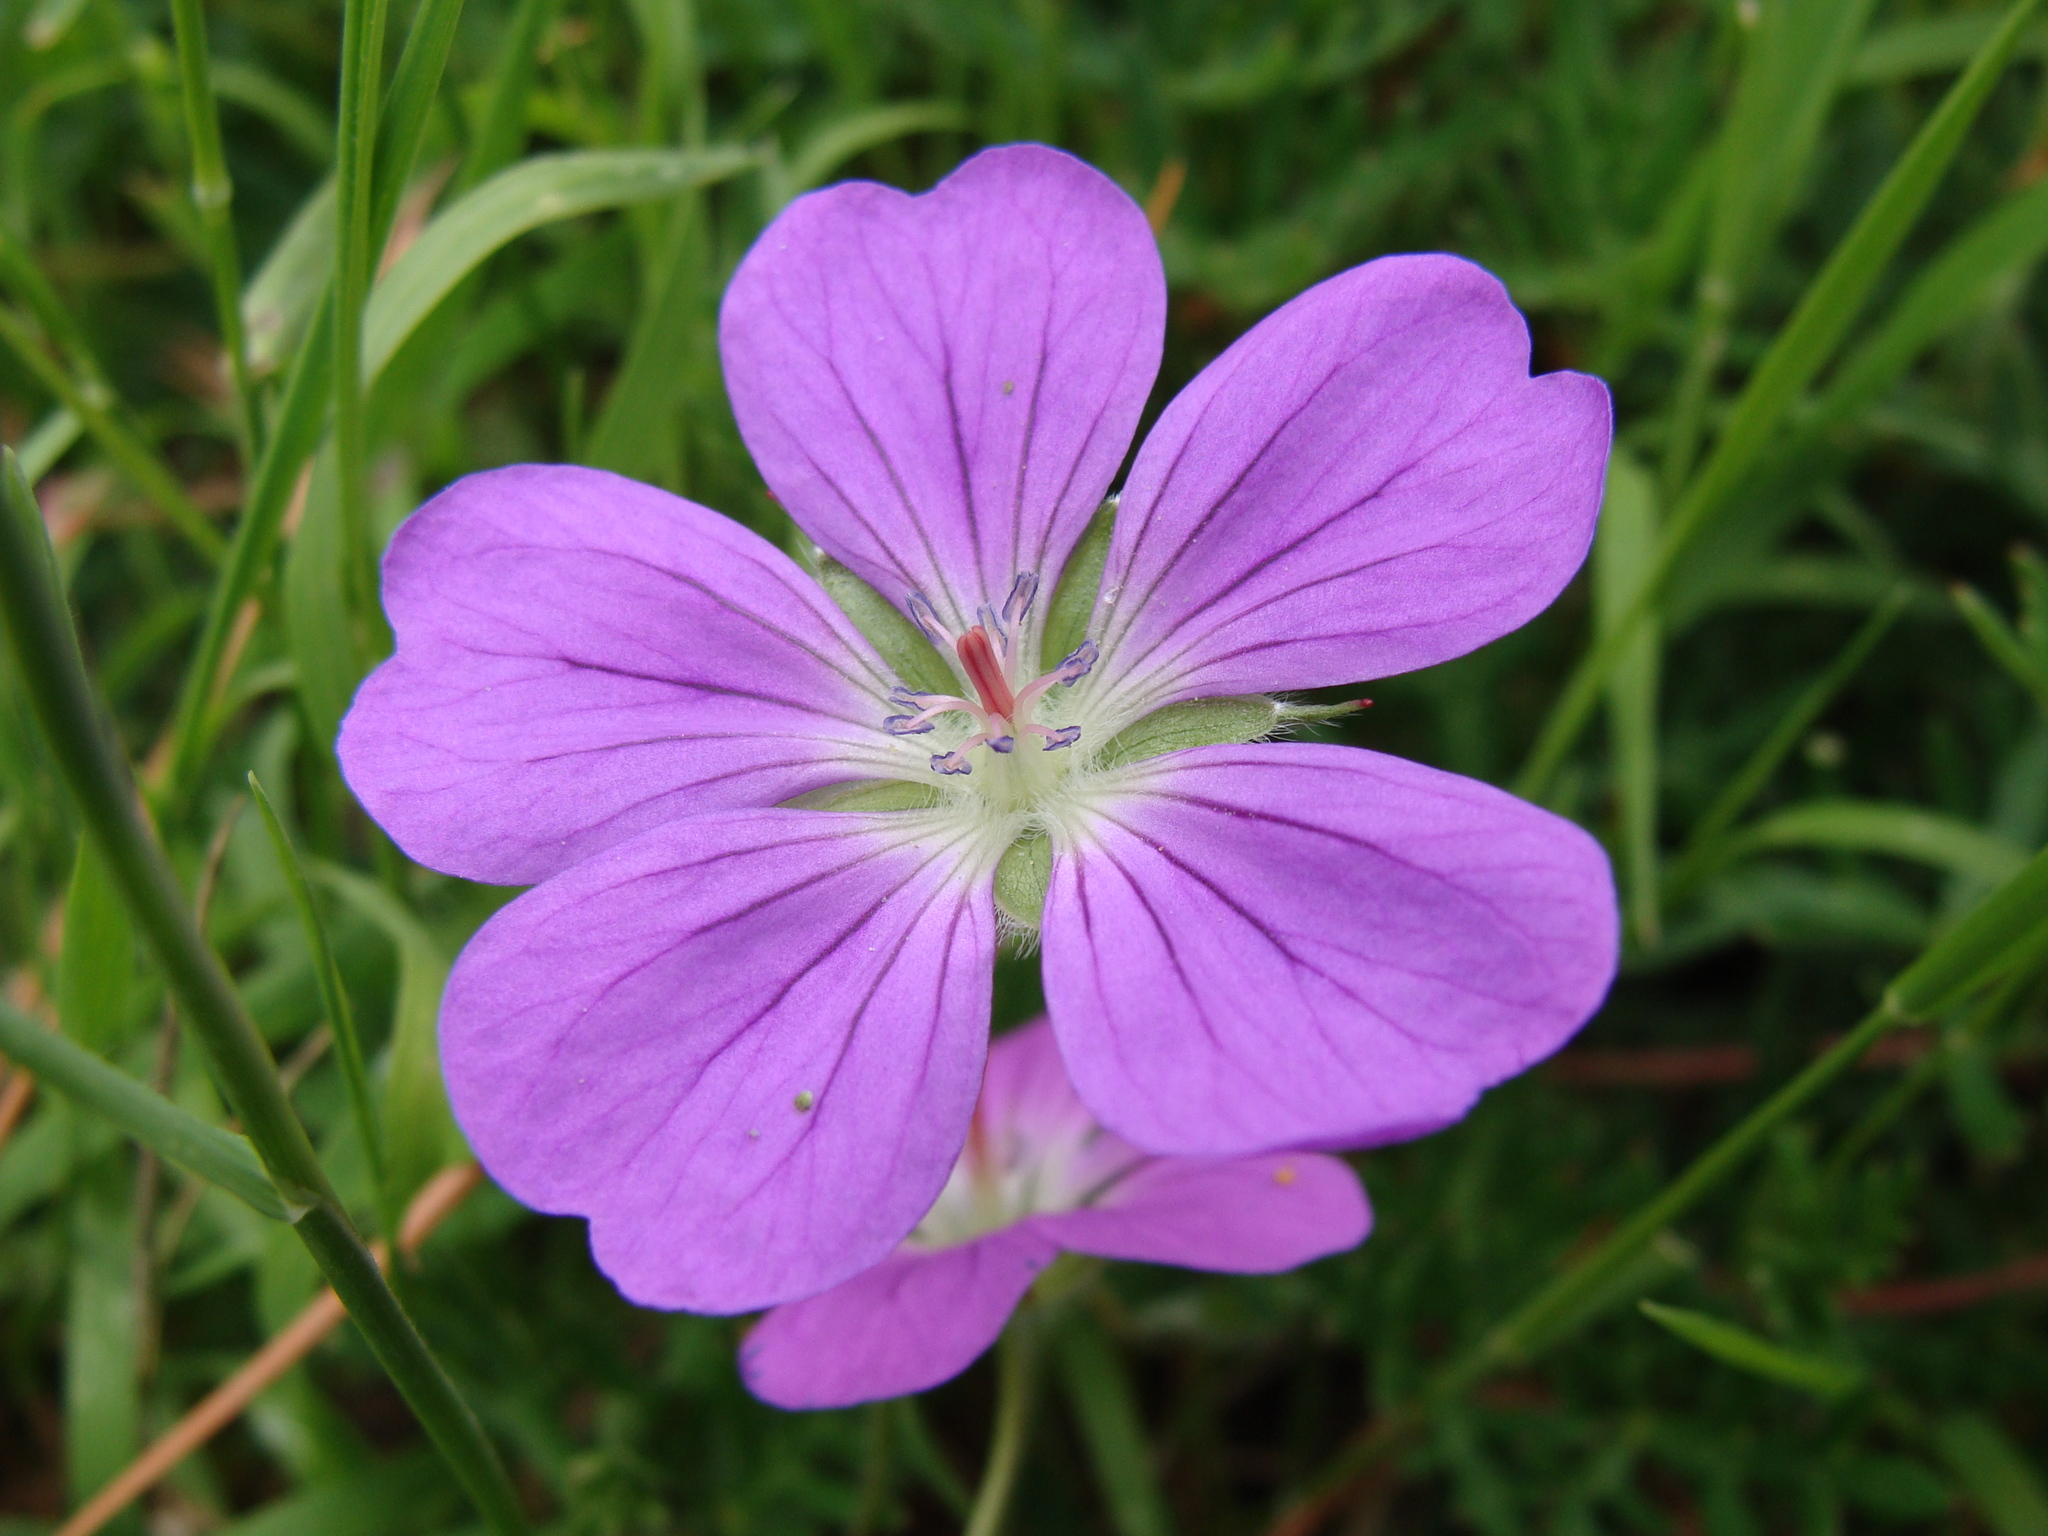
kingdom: Plantae
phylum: Tracheophyta
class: Magnoliopsida
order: Geraniales
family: Geraniaceae
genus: Geranium
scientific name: Geranium potentillifolium
